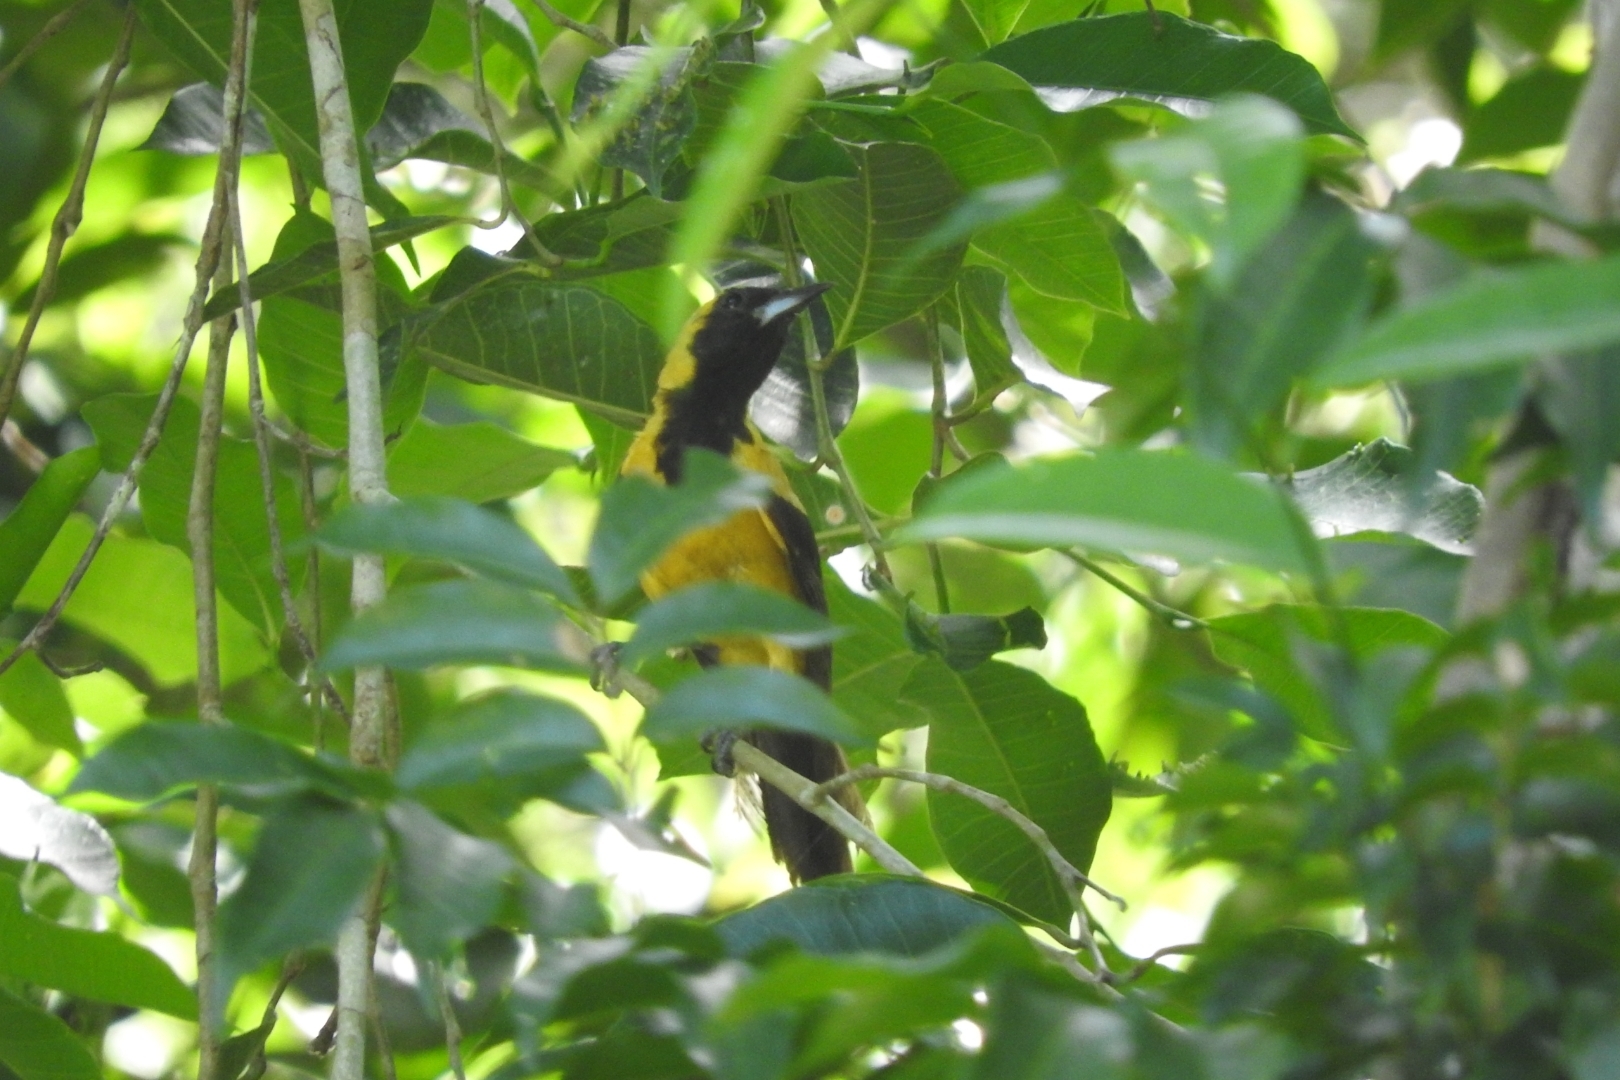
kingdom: Animalia
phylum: Chordata
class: Aves
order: Passeriformes
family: Icteridae
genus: Icterus
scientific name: Icterus prosthemelas
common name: Black-cowled oriole
